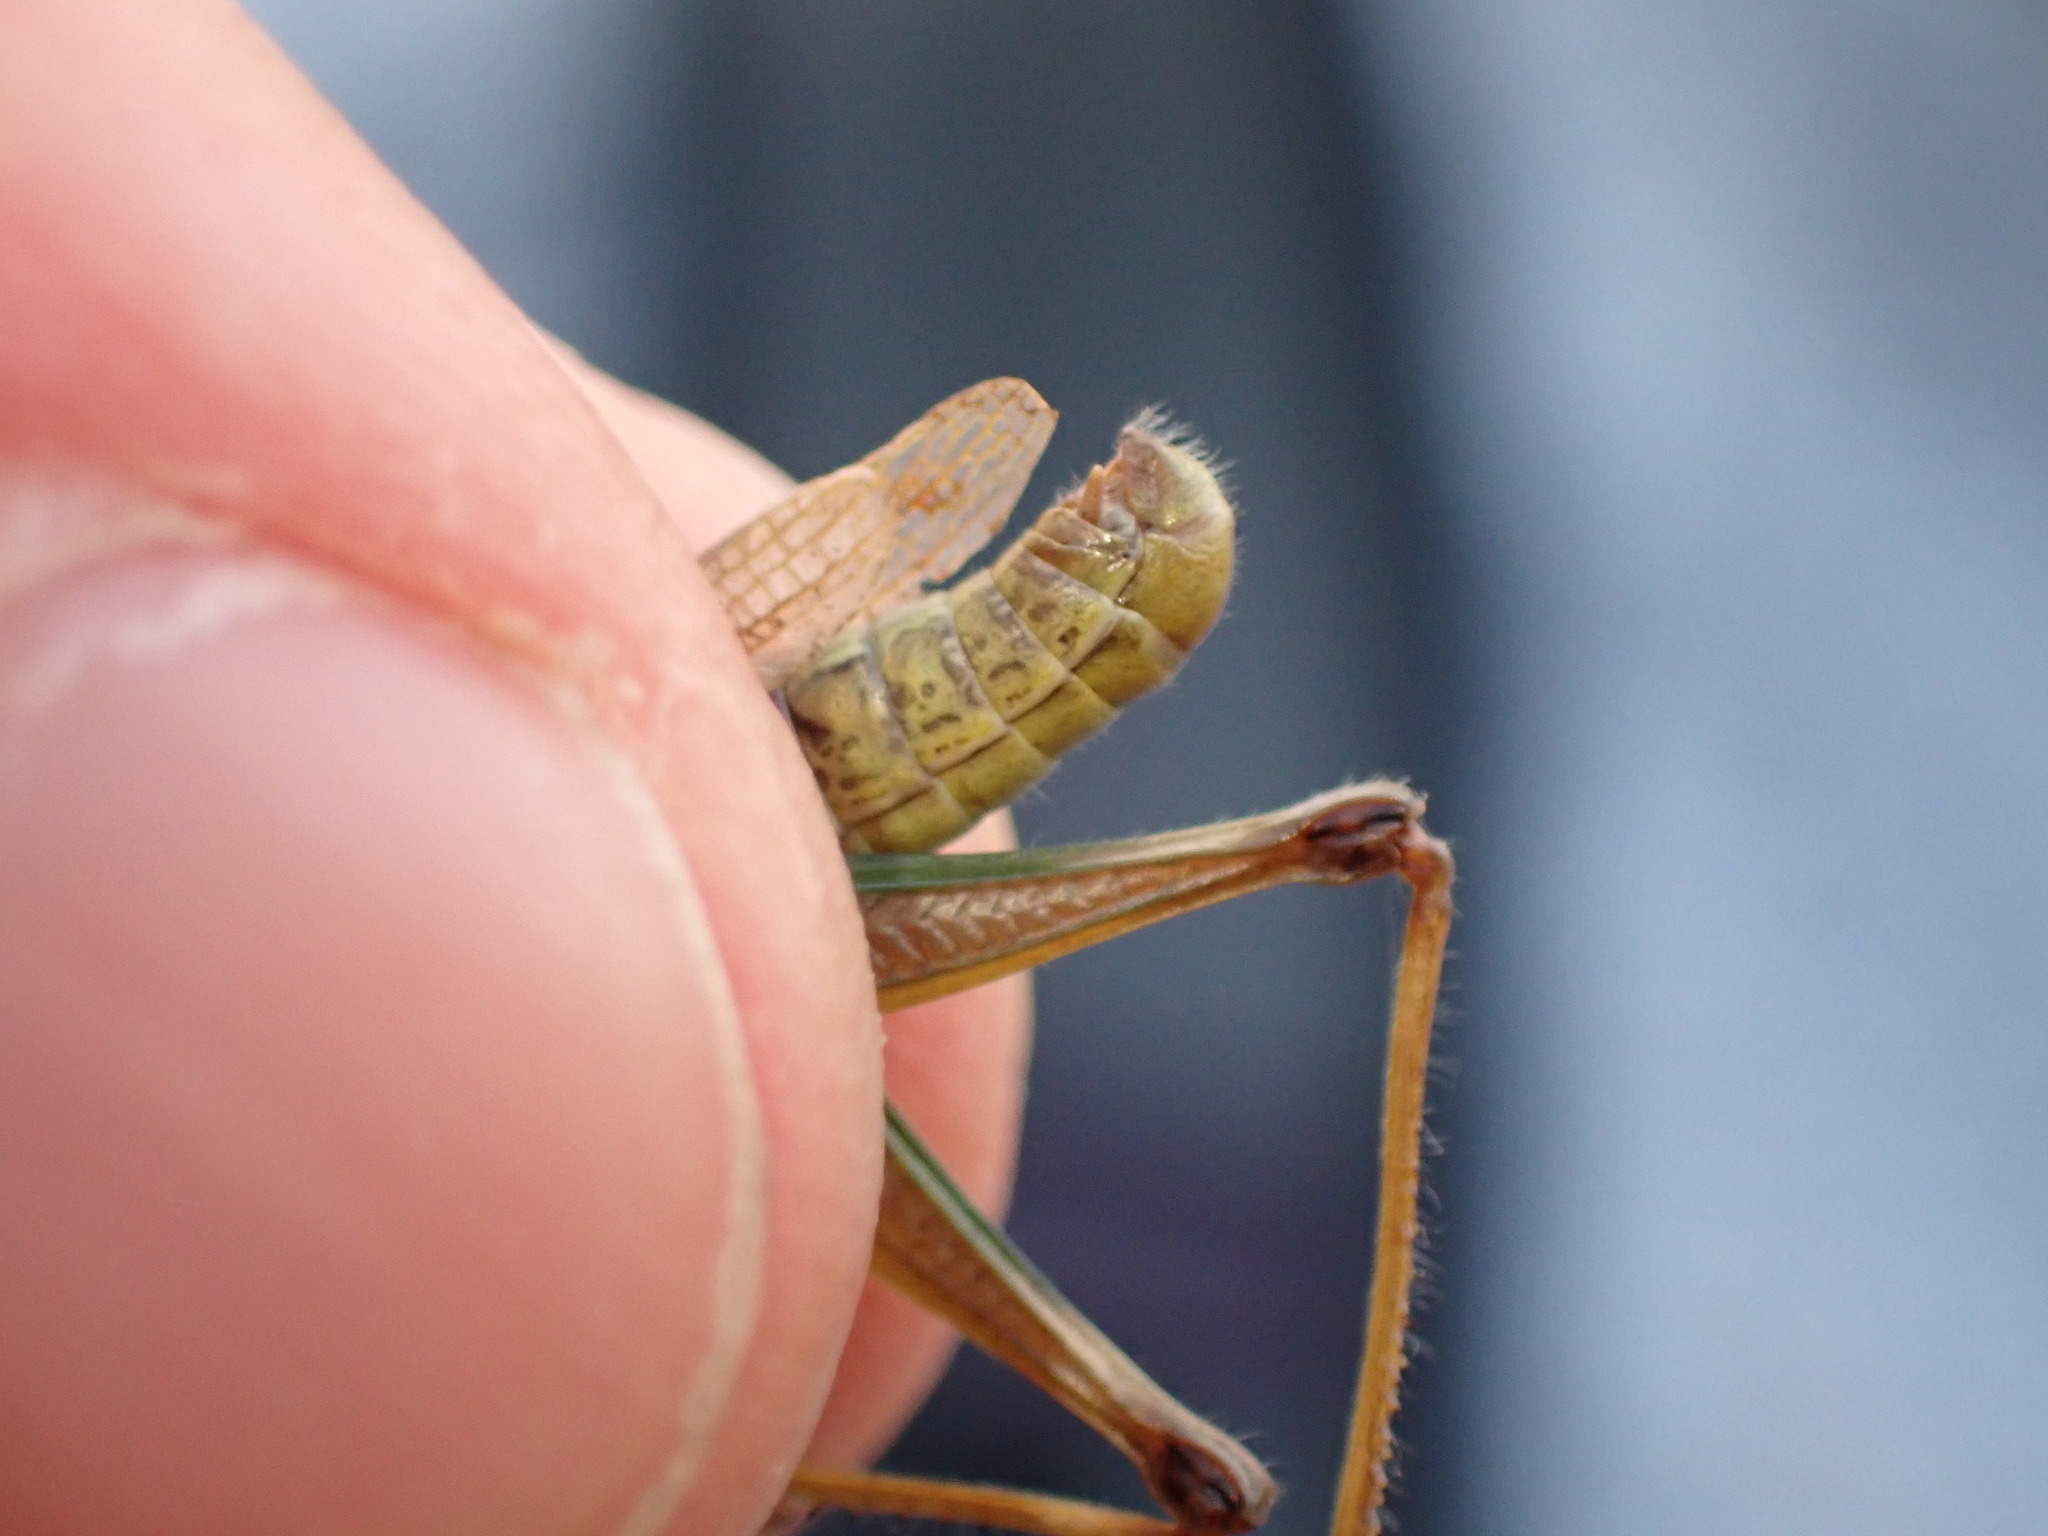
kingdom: Animalia
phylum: Arthropoda
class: Insecta
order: Orthoptera
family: Acrididae
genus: Pseudochorthippus
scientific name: Pseudochorthippus parallelus
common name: Meadow grasshopper
